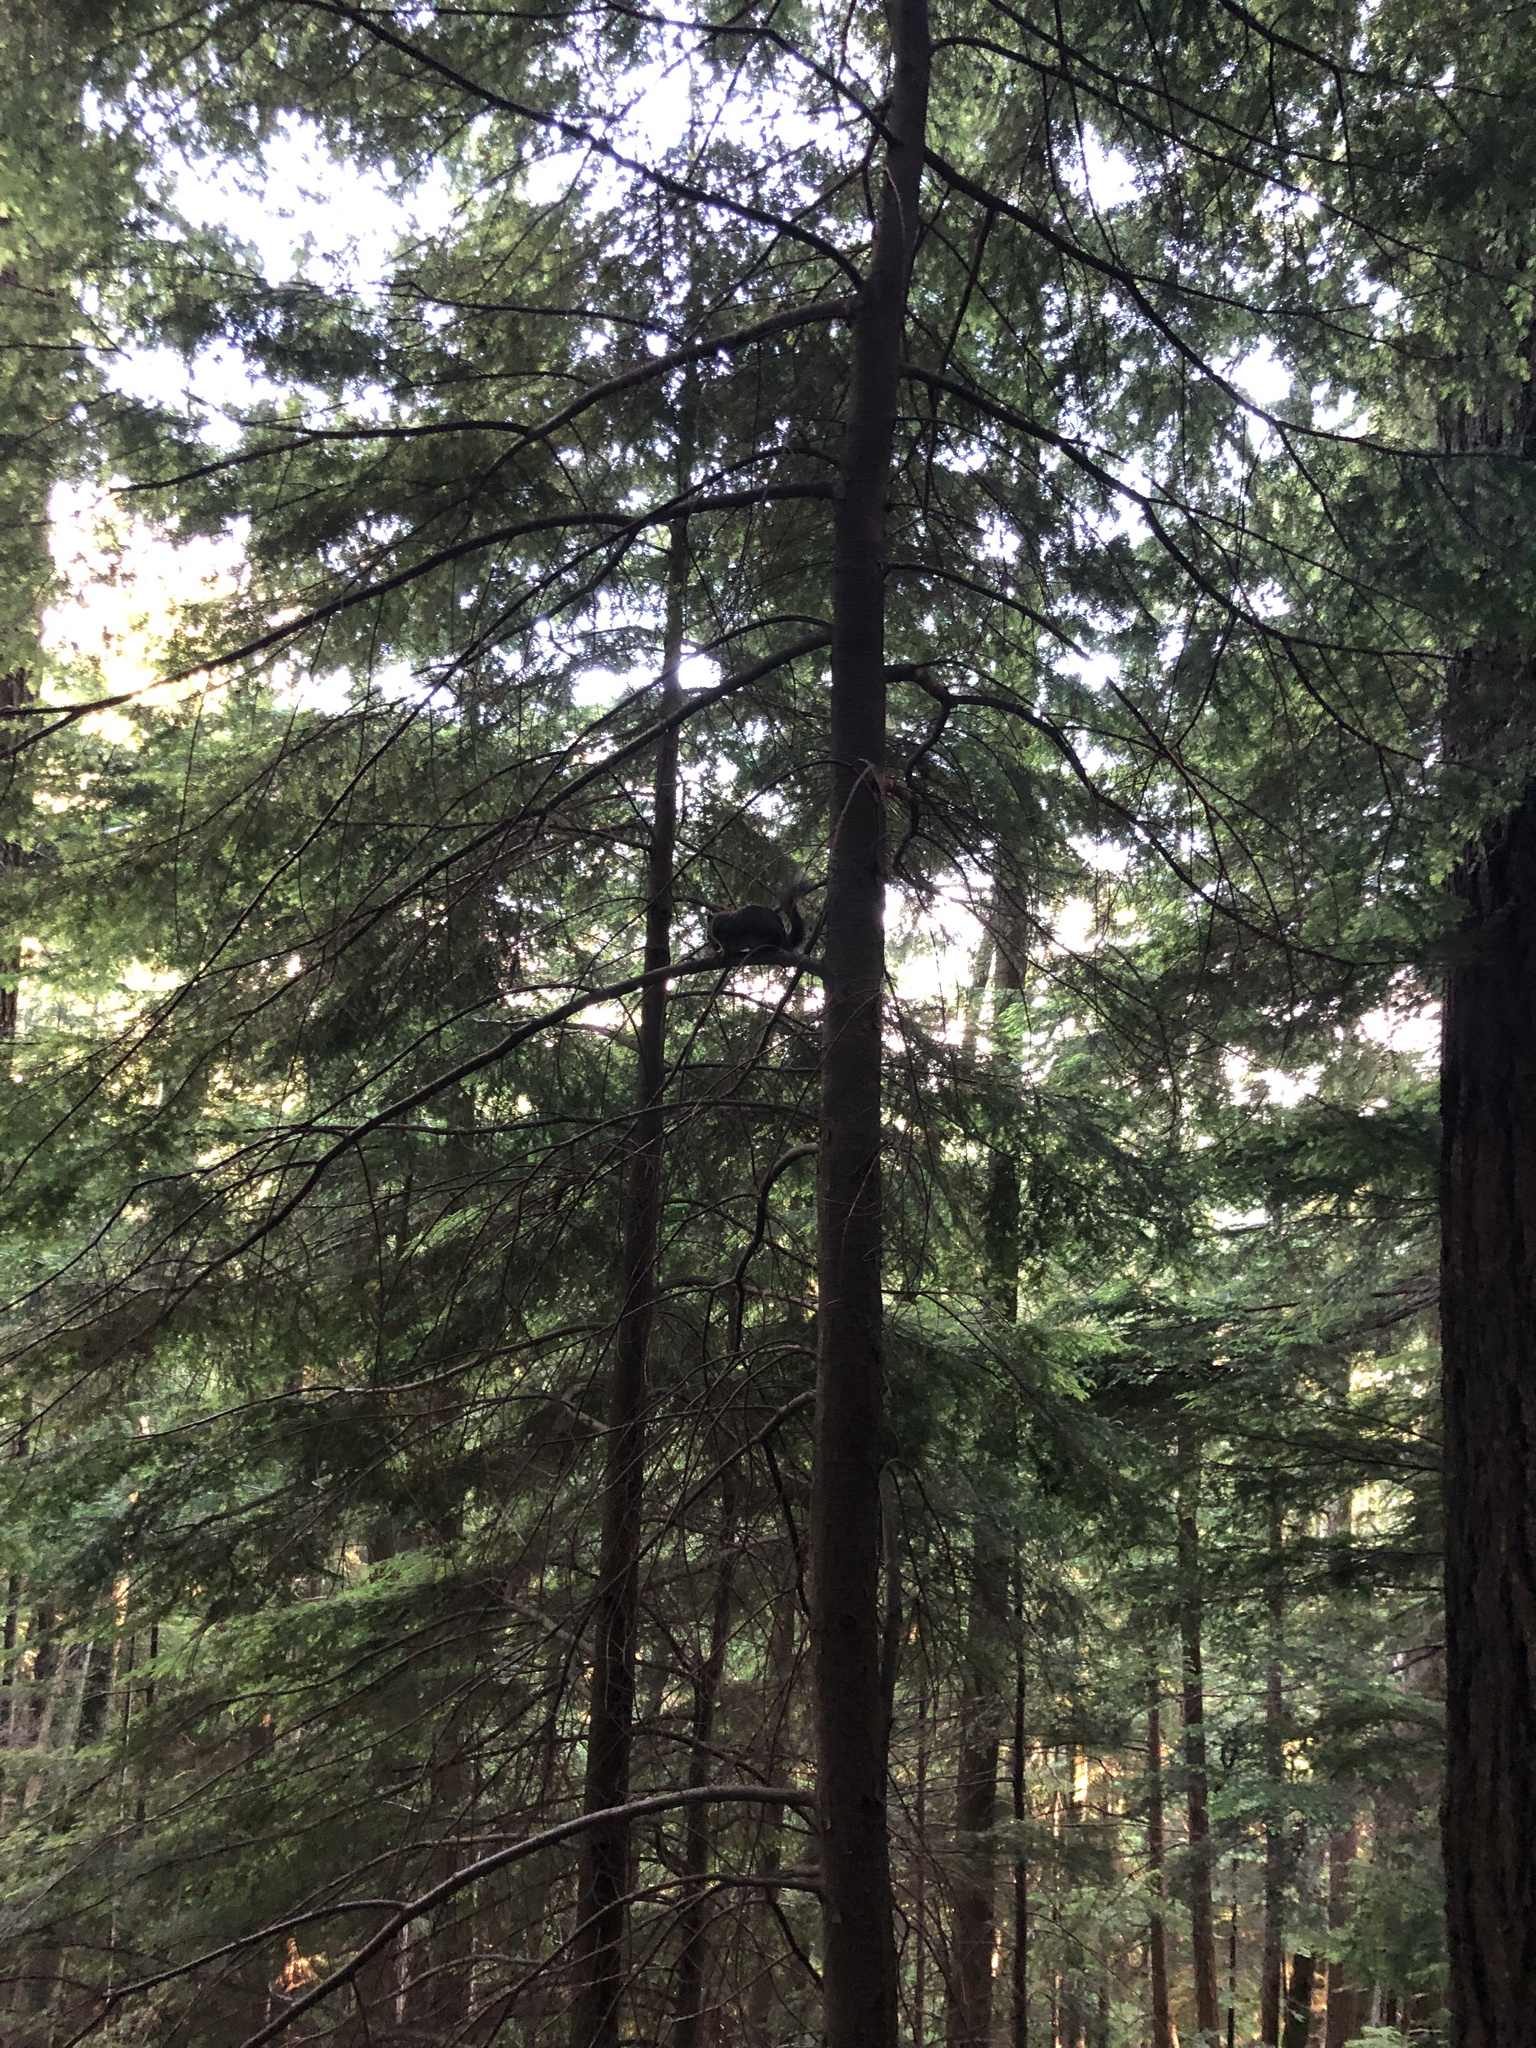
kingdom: Animalia
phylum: Chordata
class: Mammalia
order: Rodentia
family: Sciuridae
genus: Tamiasciurus
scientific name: Tamiasciurus douglasii
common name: Douglas's squirrel
